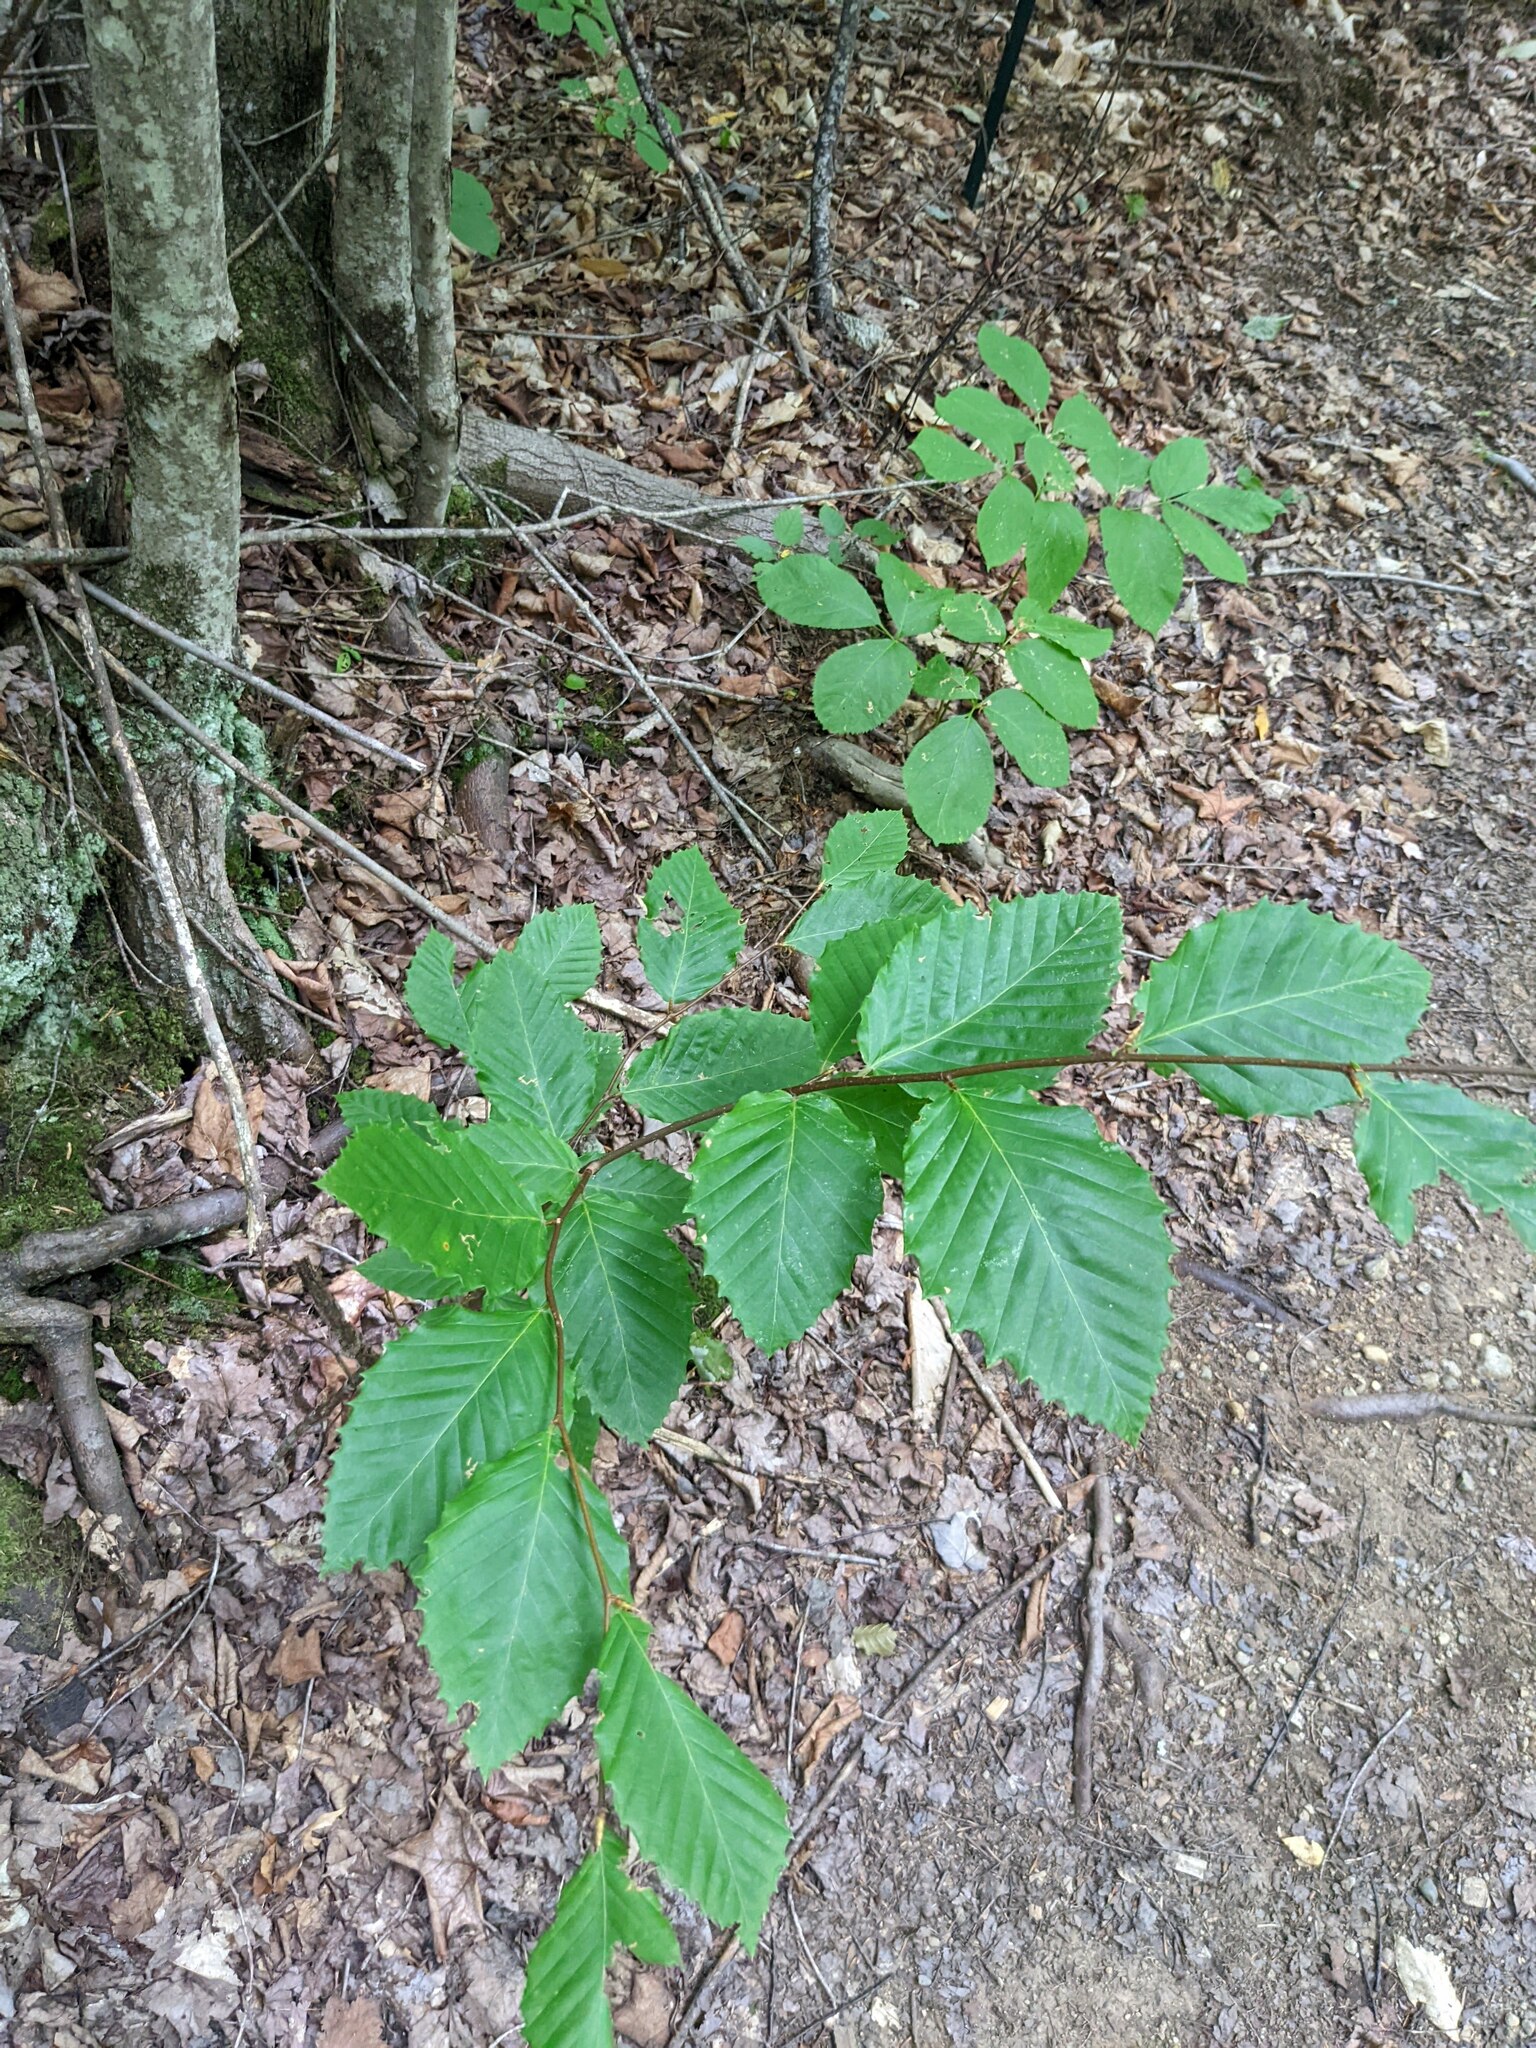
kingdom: Plantae
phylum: Tracheophyta
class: Magnoliopsida
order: Fagales
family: Fagaceae
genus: Fagus
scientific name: Fagus grandifolia
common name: American beech
